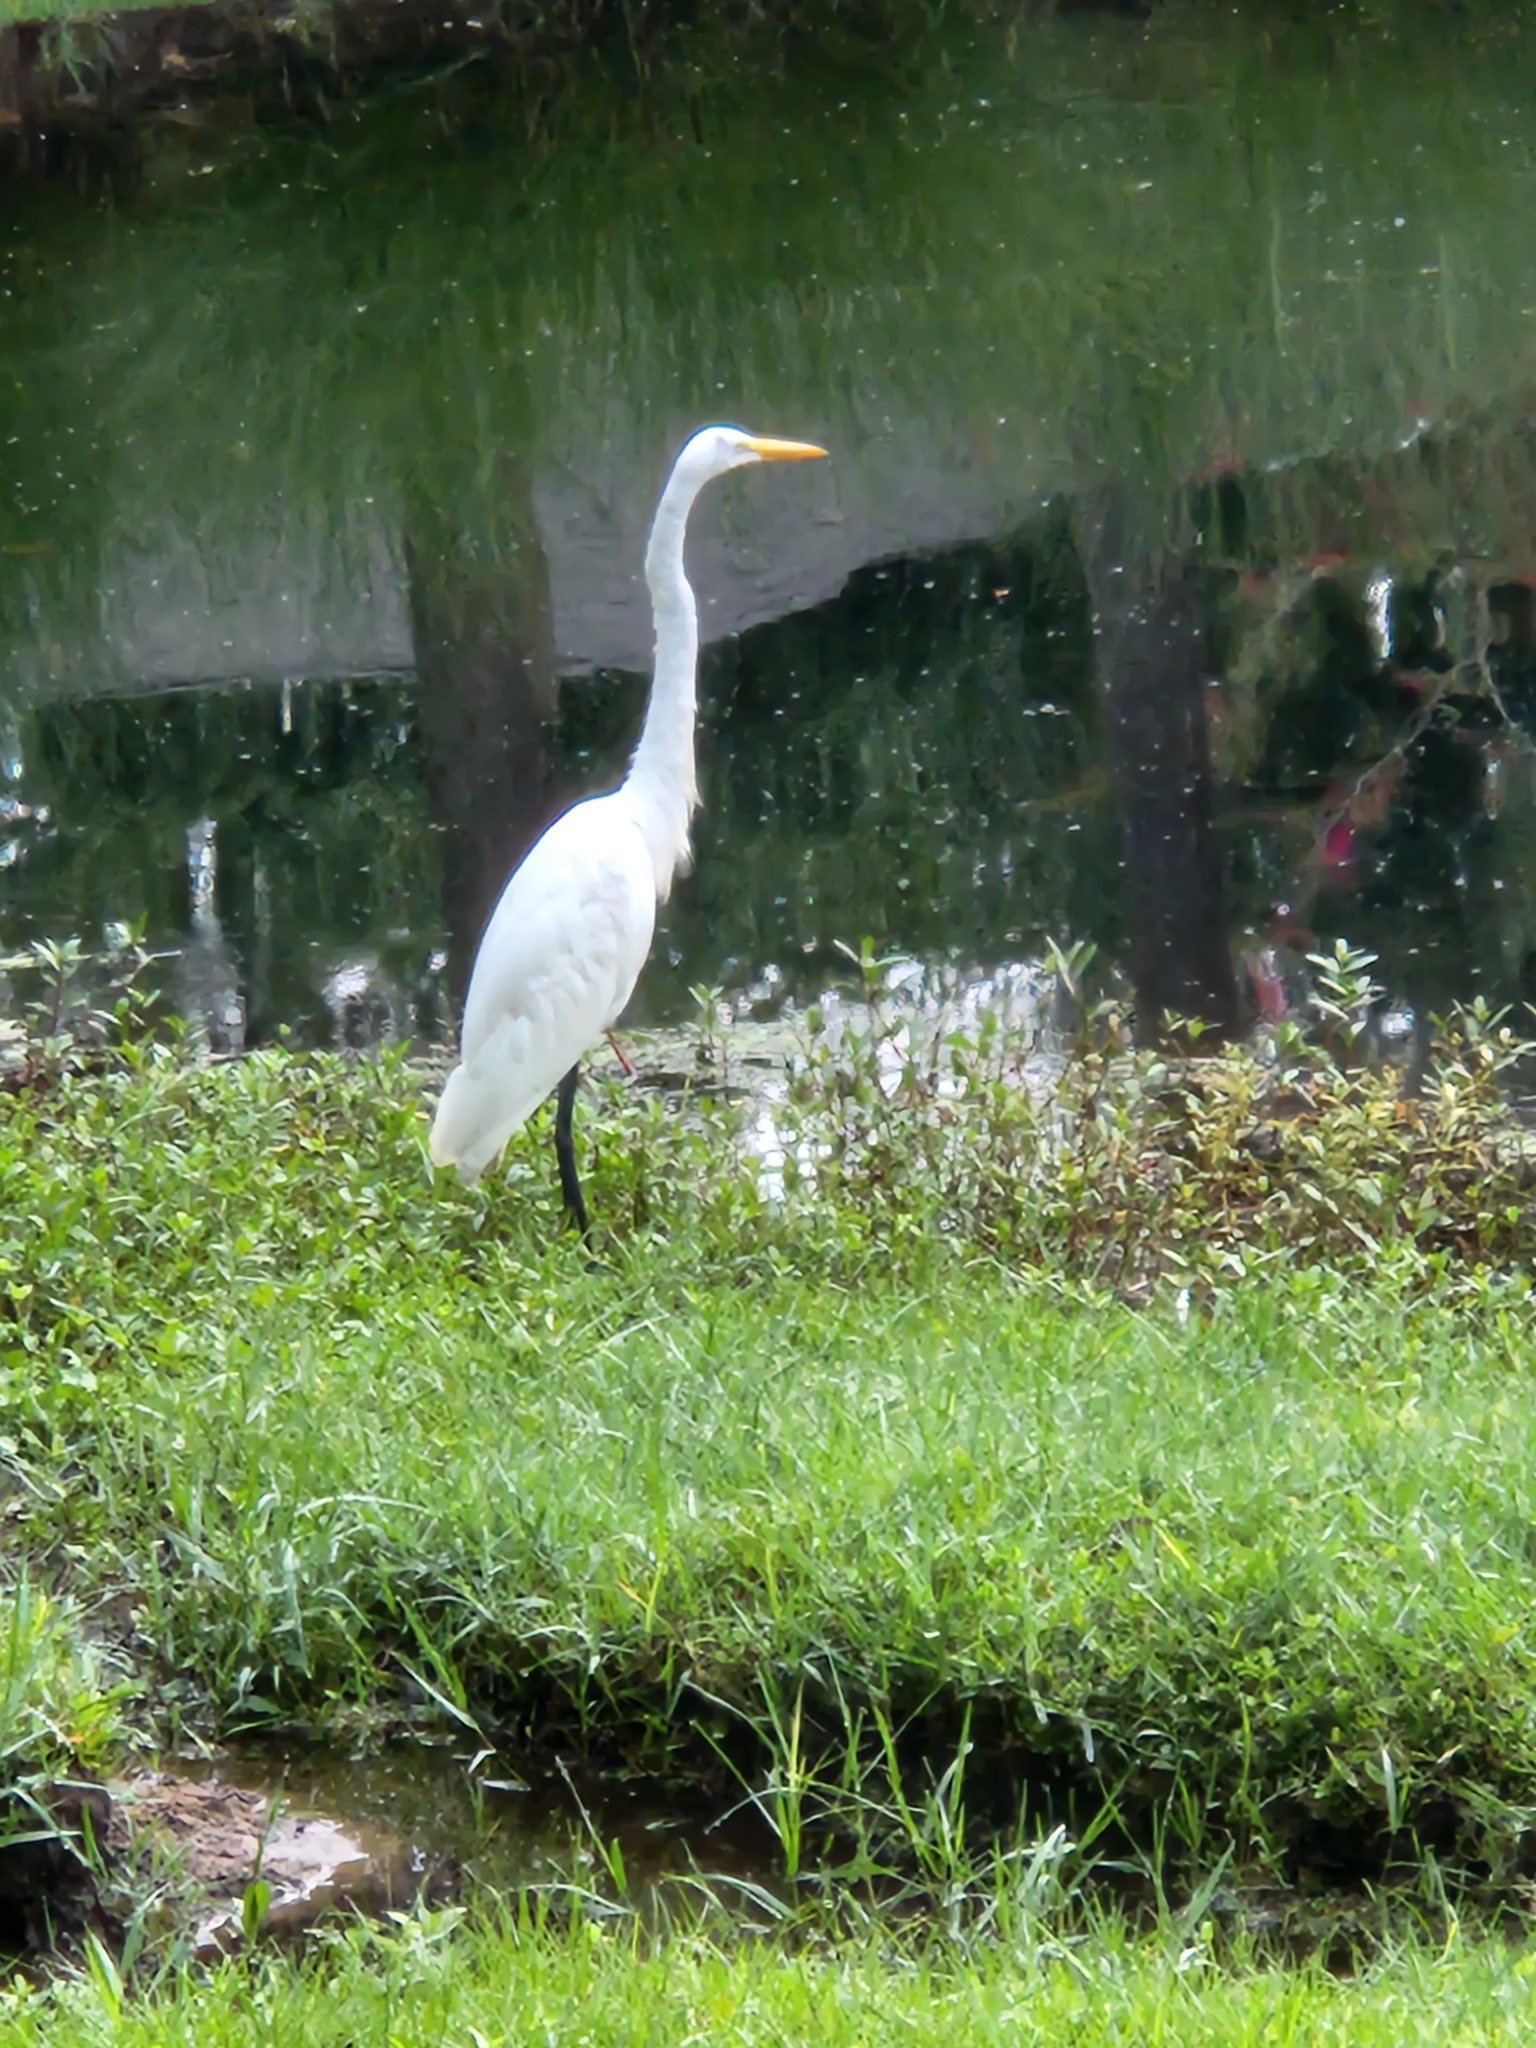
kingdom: Animalia
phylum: Chordata
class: Aves
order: Pelecaniformes
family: Ardeidae
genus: Ardea
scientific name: Ardea alba
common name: Great egret
